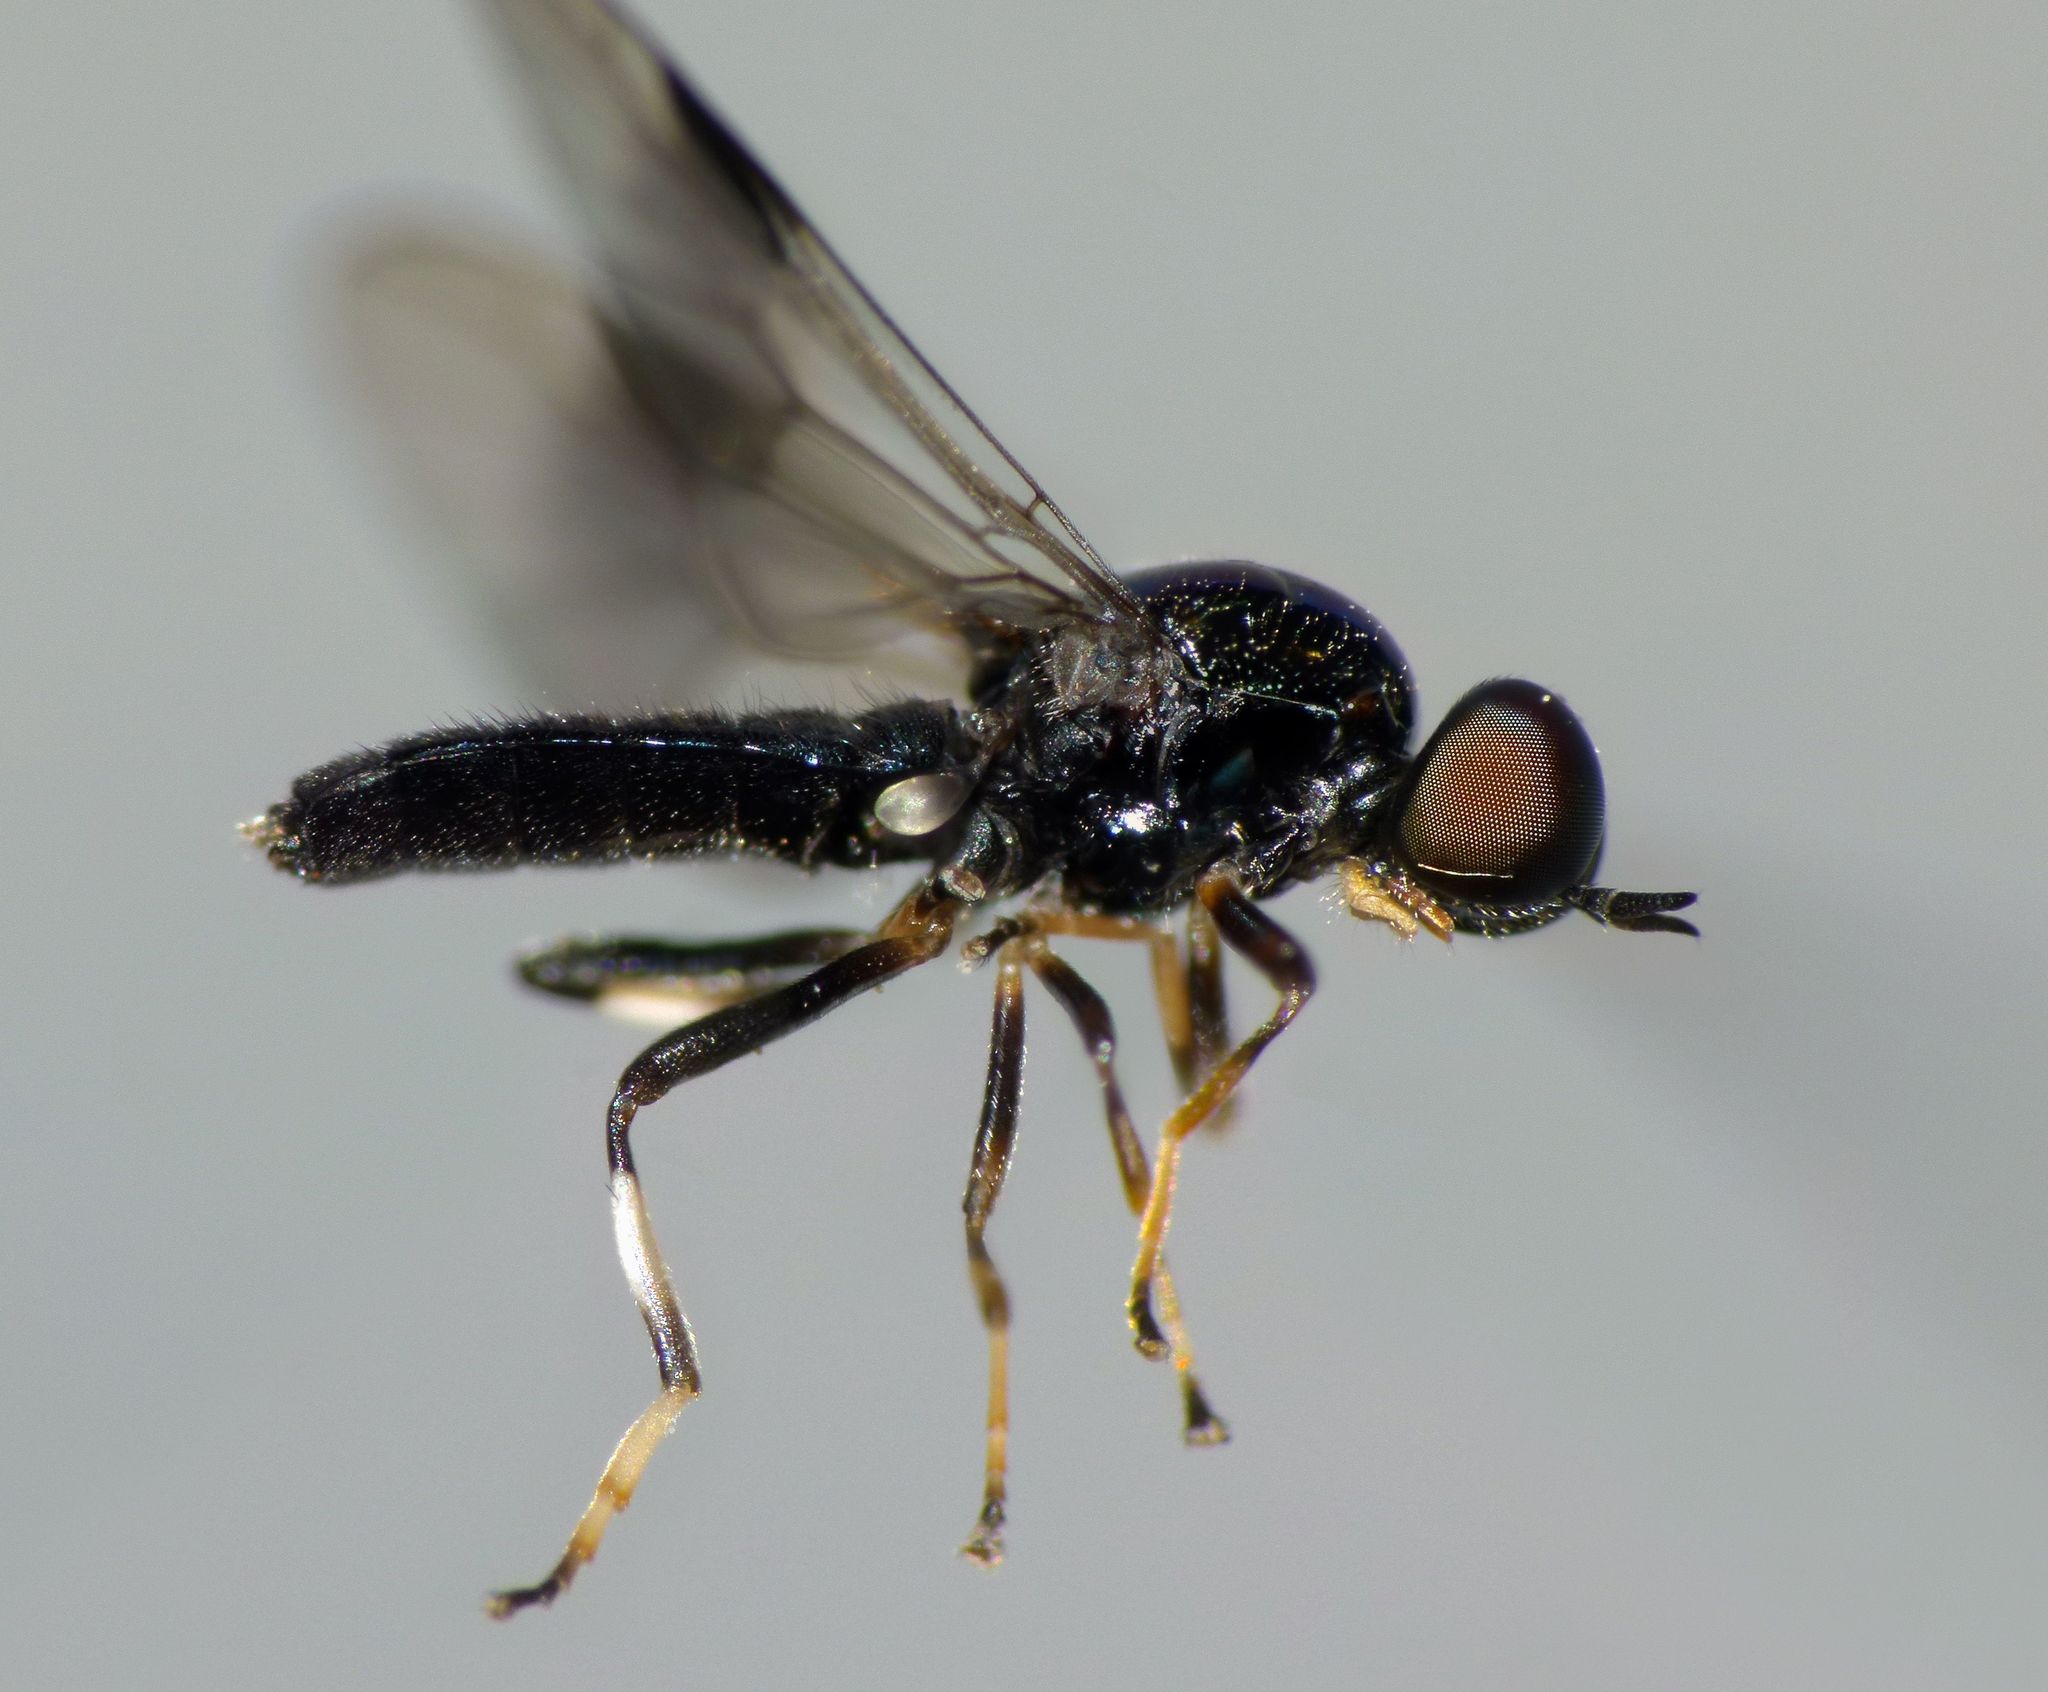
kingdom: Animalia
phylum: Arthropoda
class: Insecta
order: Diptera
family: Stratiomyidae
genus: Zealandoberis
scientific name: Zealandoberis lacuans
